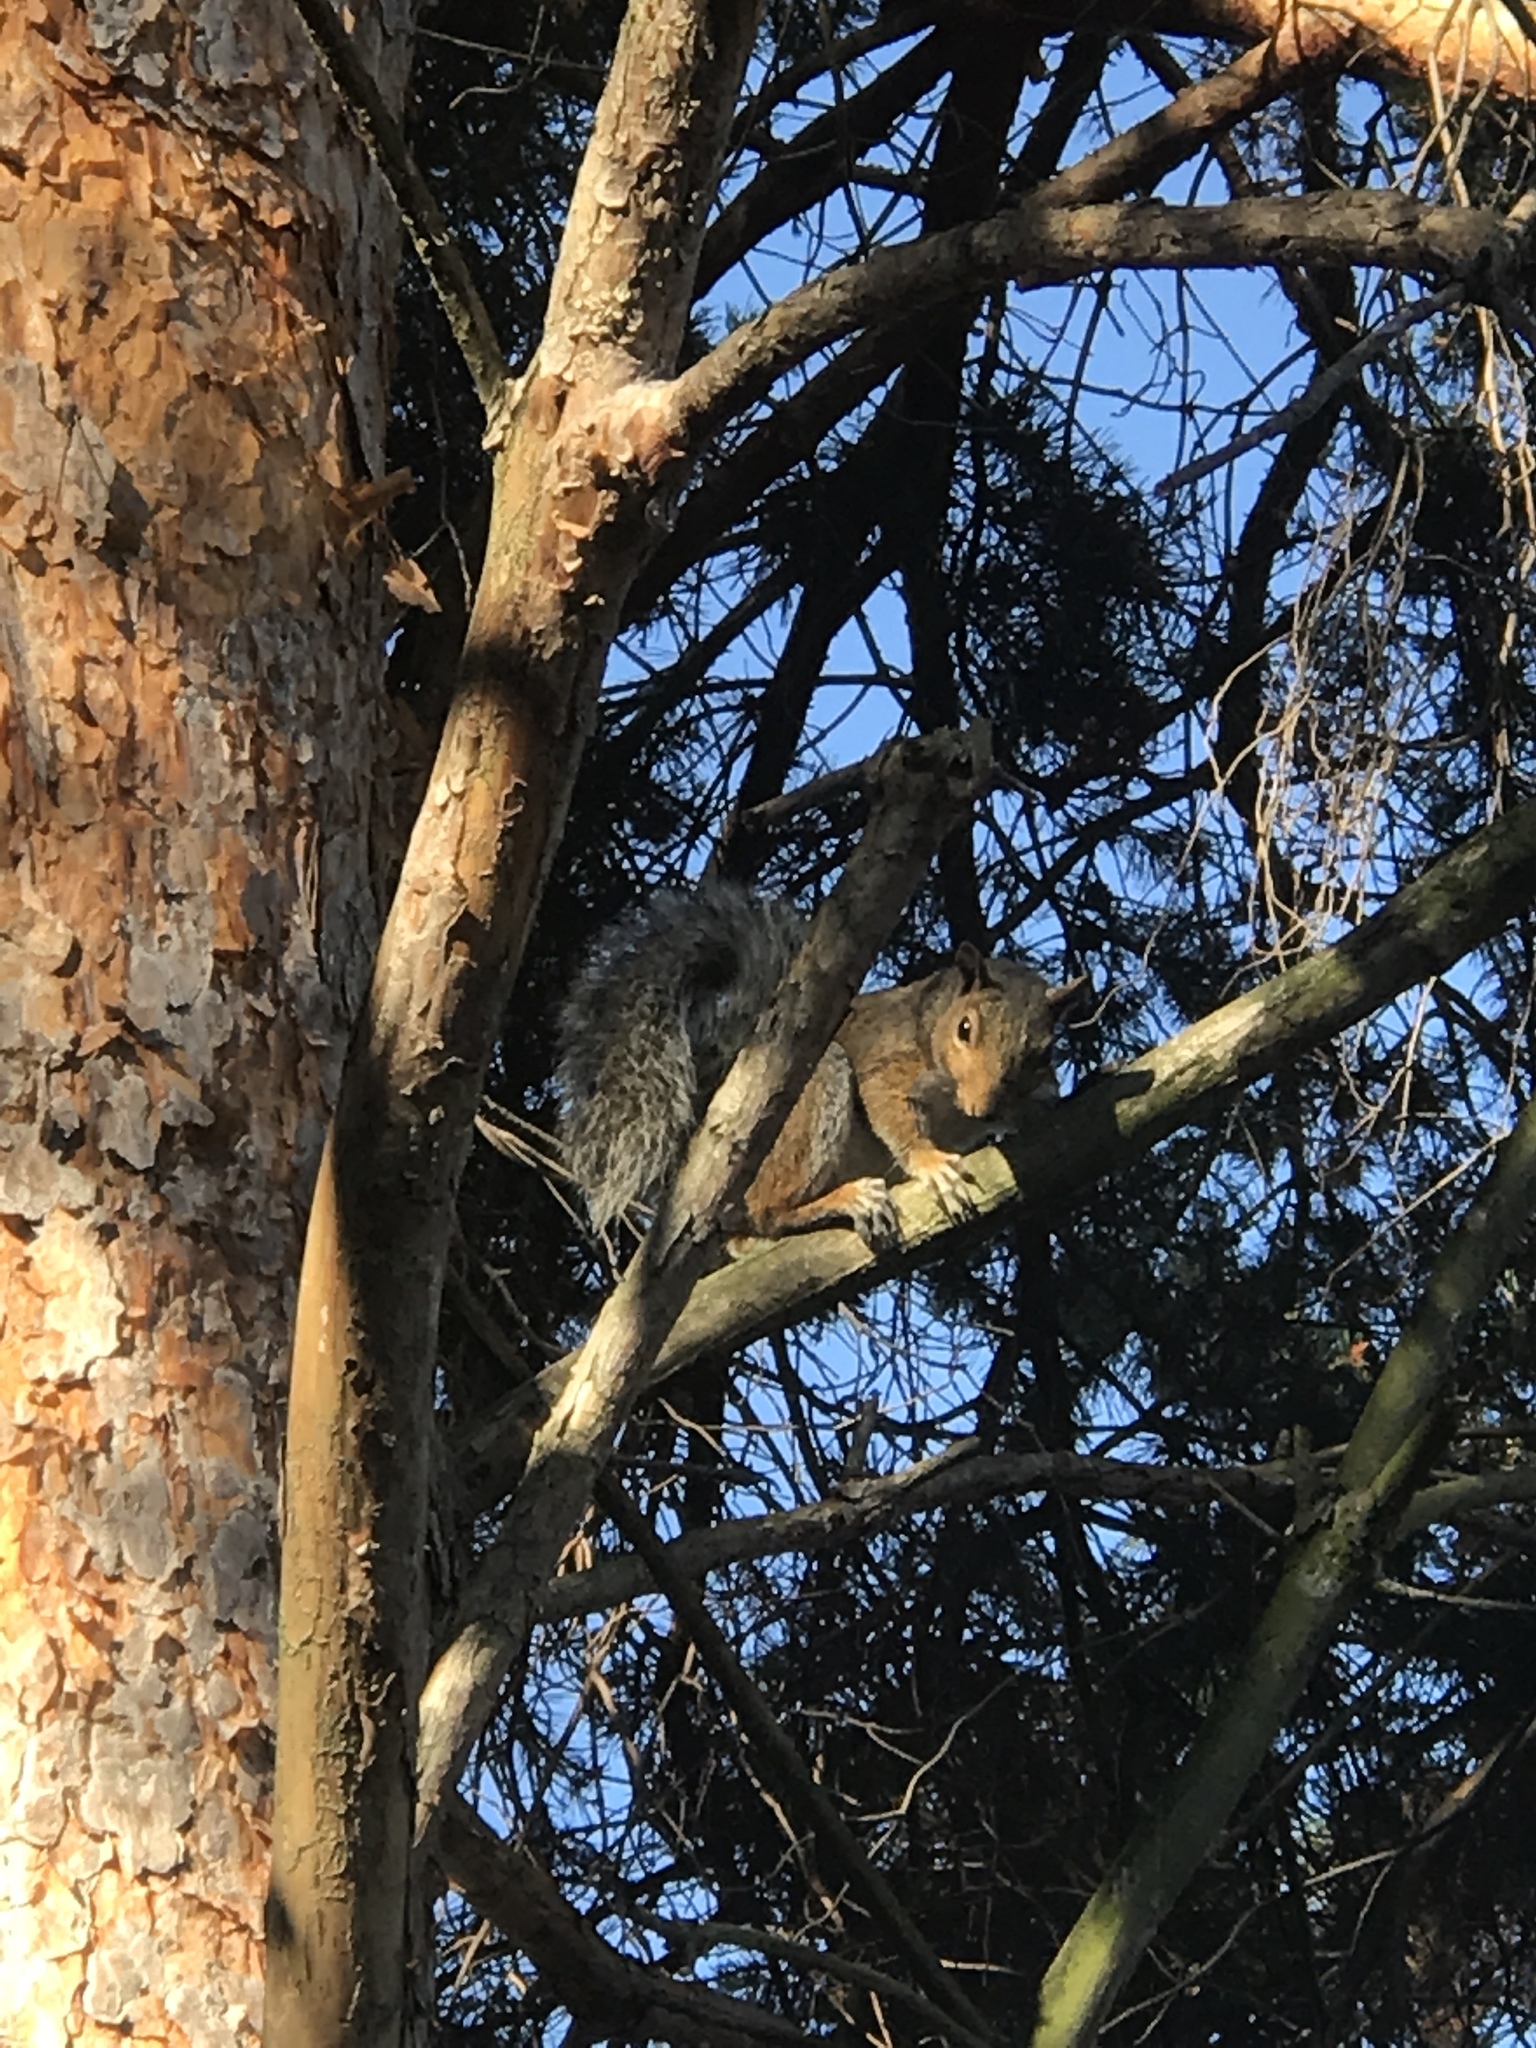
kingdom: Animalia
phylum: Chordata
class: Mammalia
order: Rodentia
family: Sciuridae
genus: Sciurus
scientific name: Sciurus carolinensis
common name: Eastern gray squirrel
